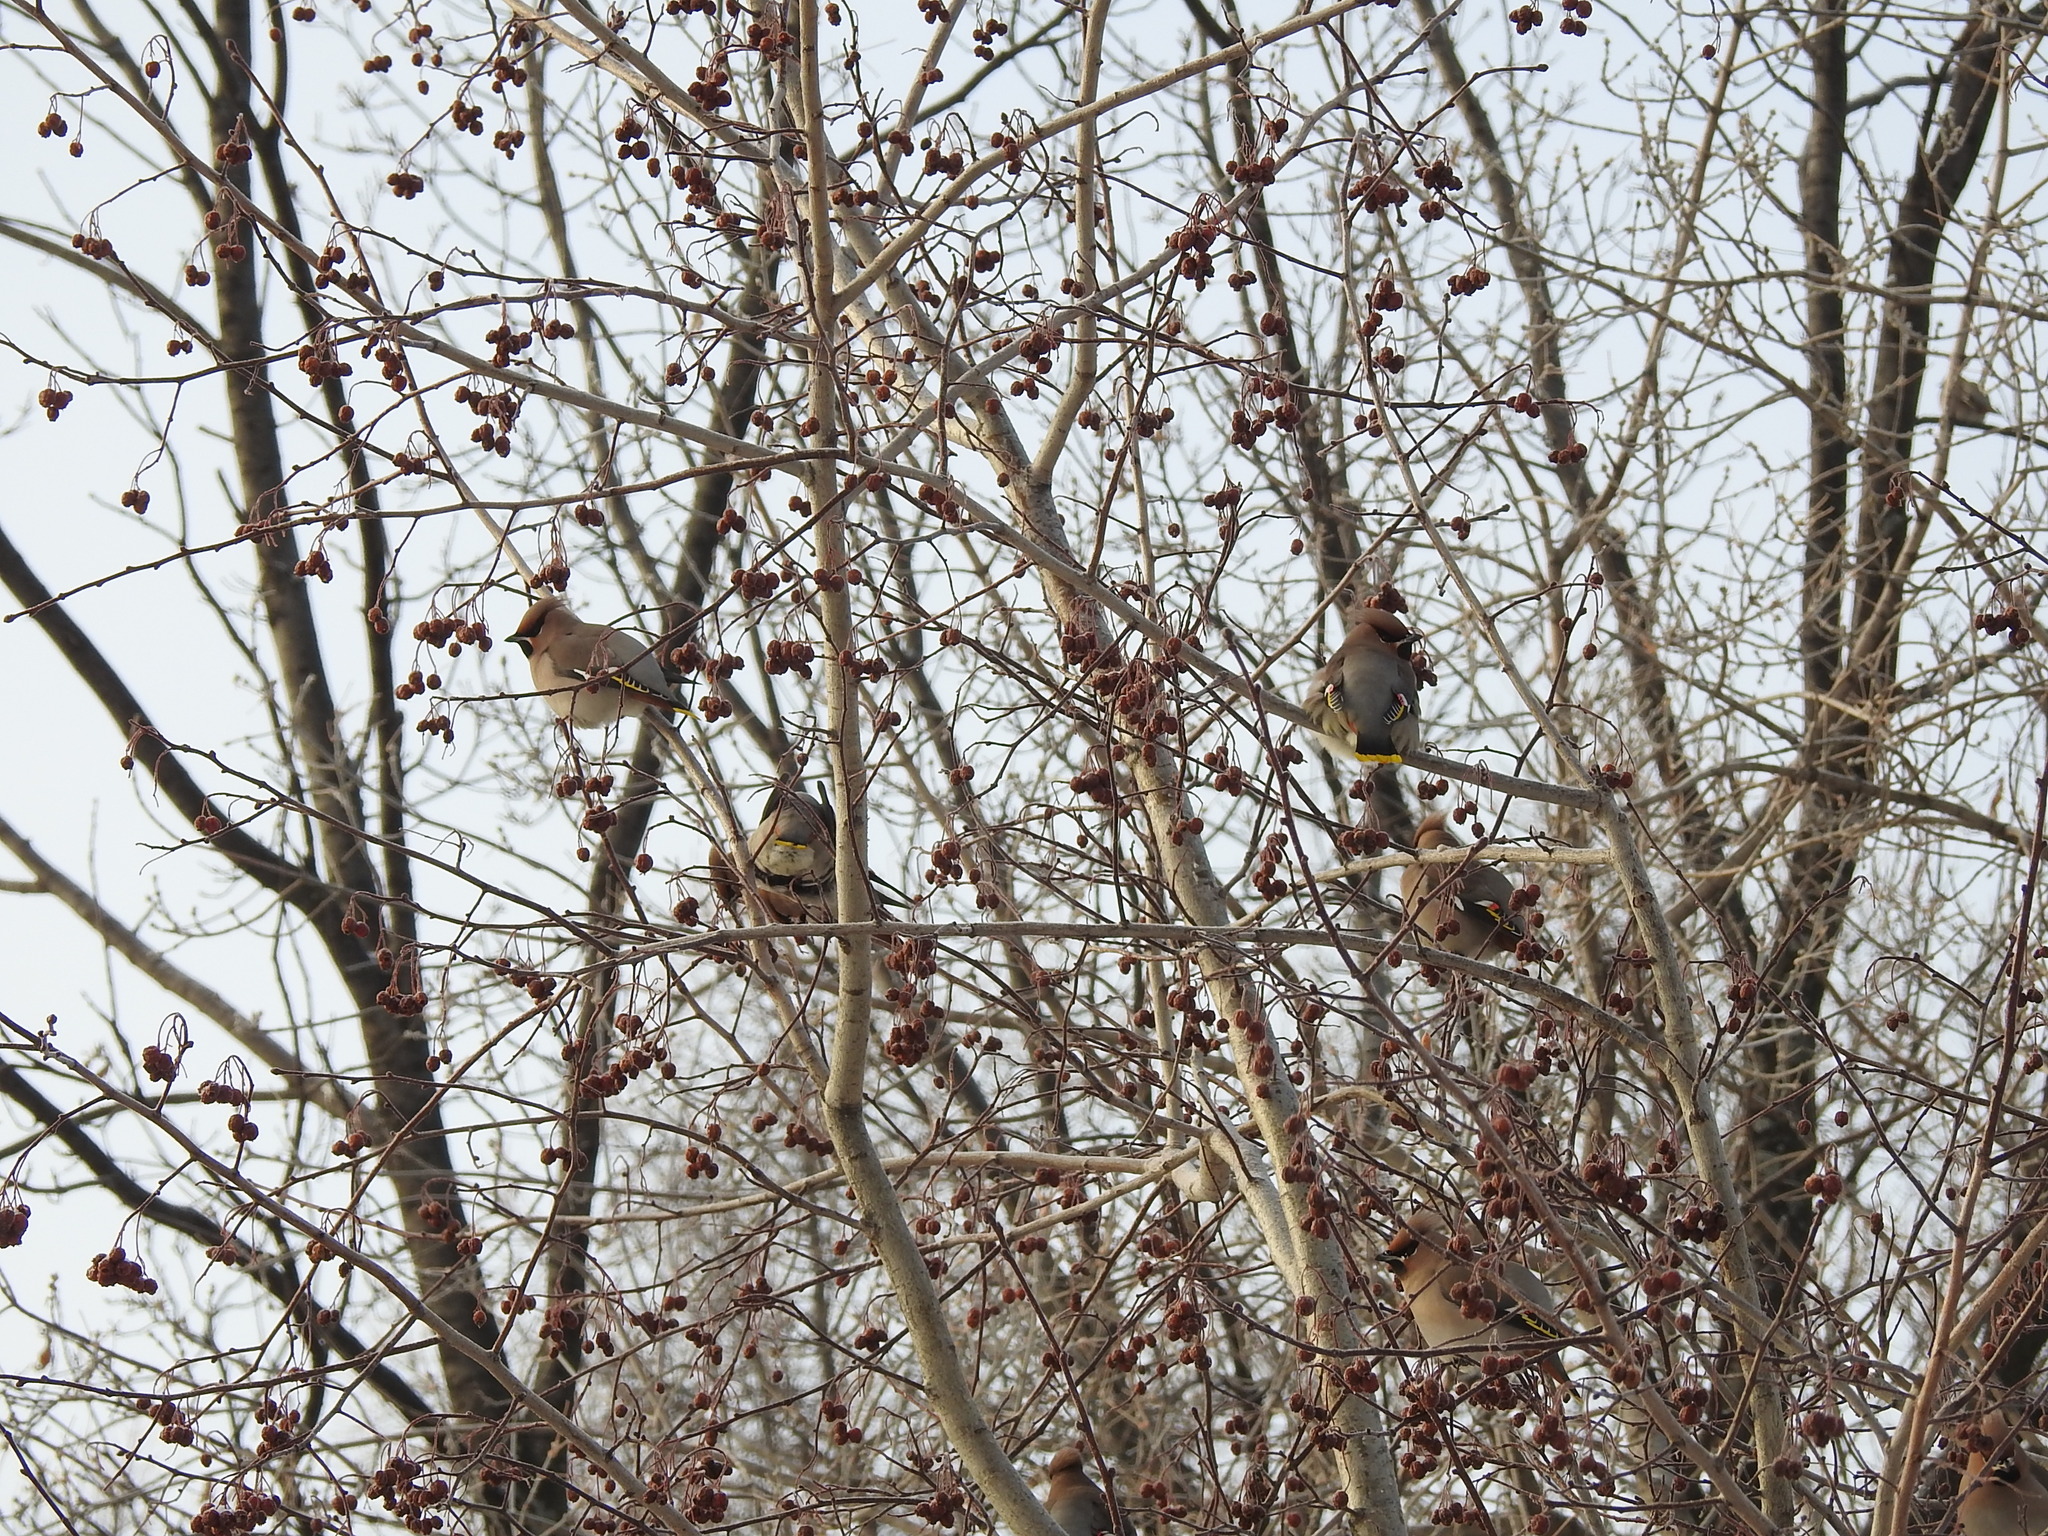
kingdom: Animalia
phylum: Chordata
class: Aves
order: Passeriformes
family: Bombycillidae
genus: Bombycilla
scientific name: Bombycilla garrulus
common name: Bohemian waxwing
